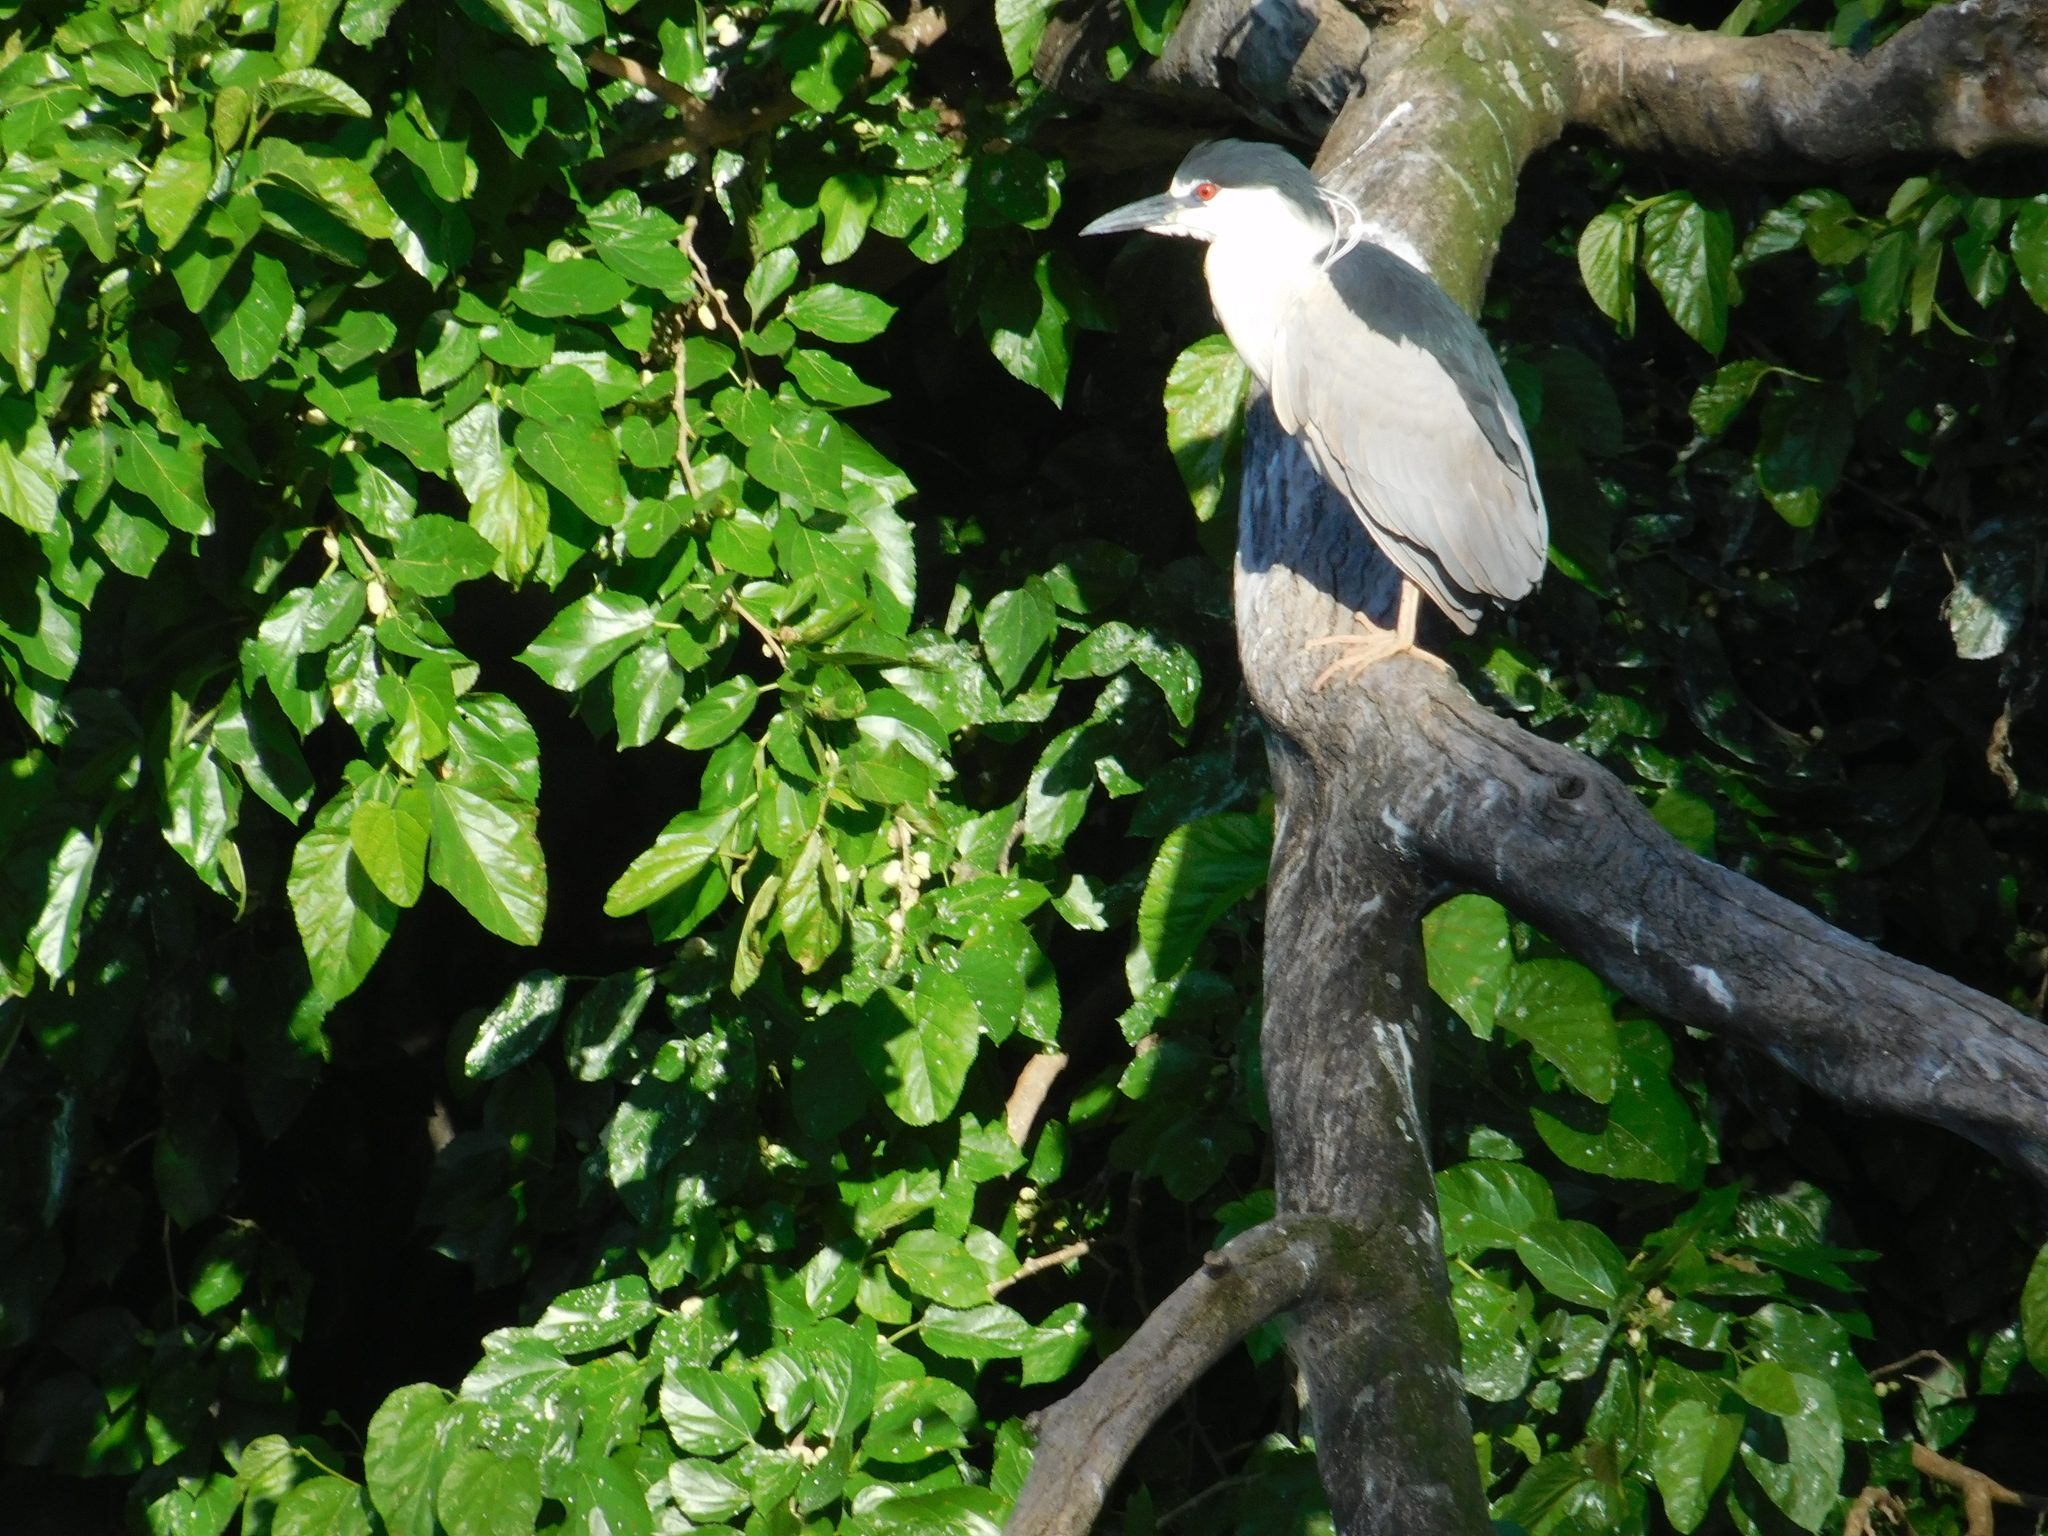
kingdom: Animalia
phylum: Chordata
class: Aves
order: Pelecaniformes
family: Ardeidae
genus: Nycticorax
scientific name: Nycticorax nycticorax
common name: Black-crowned night heron
